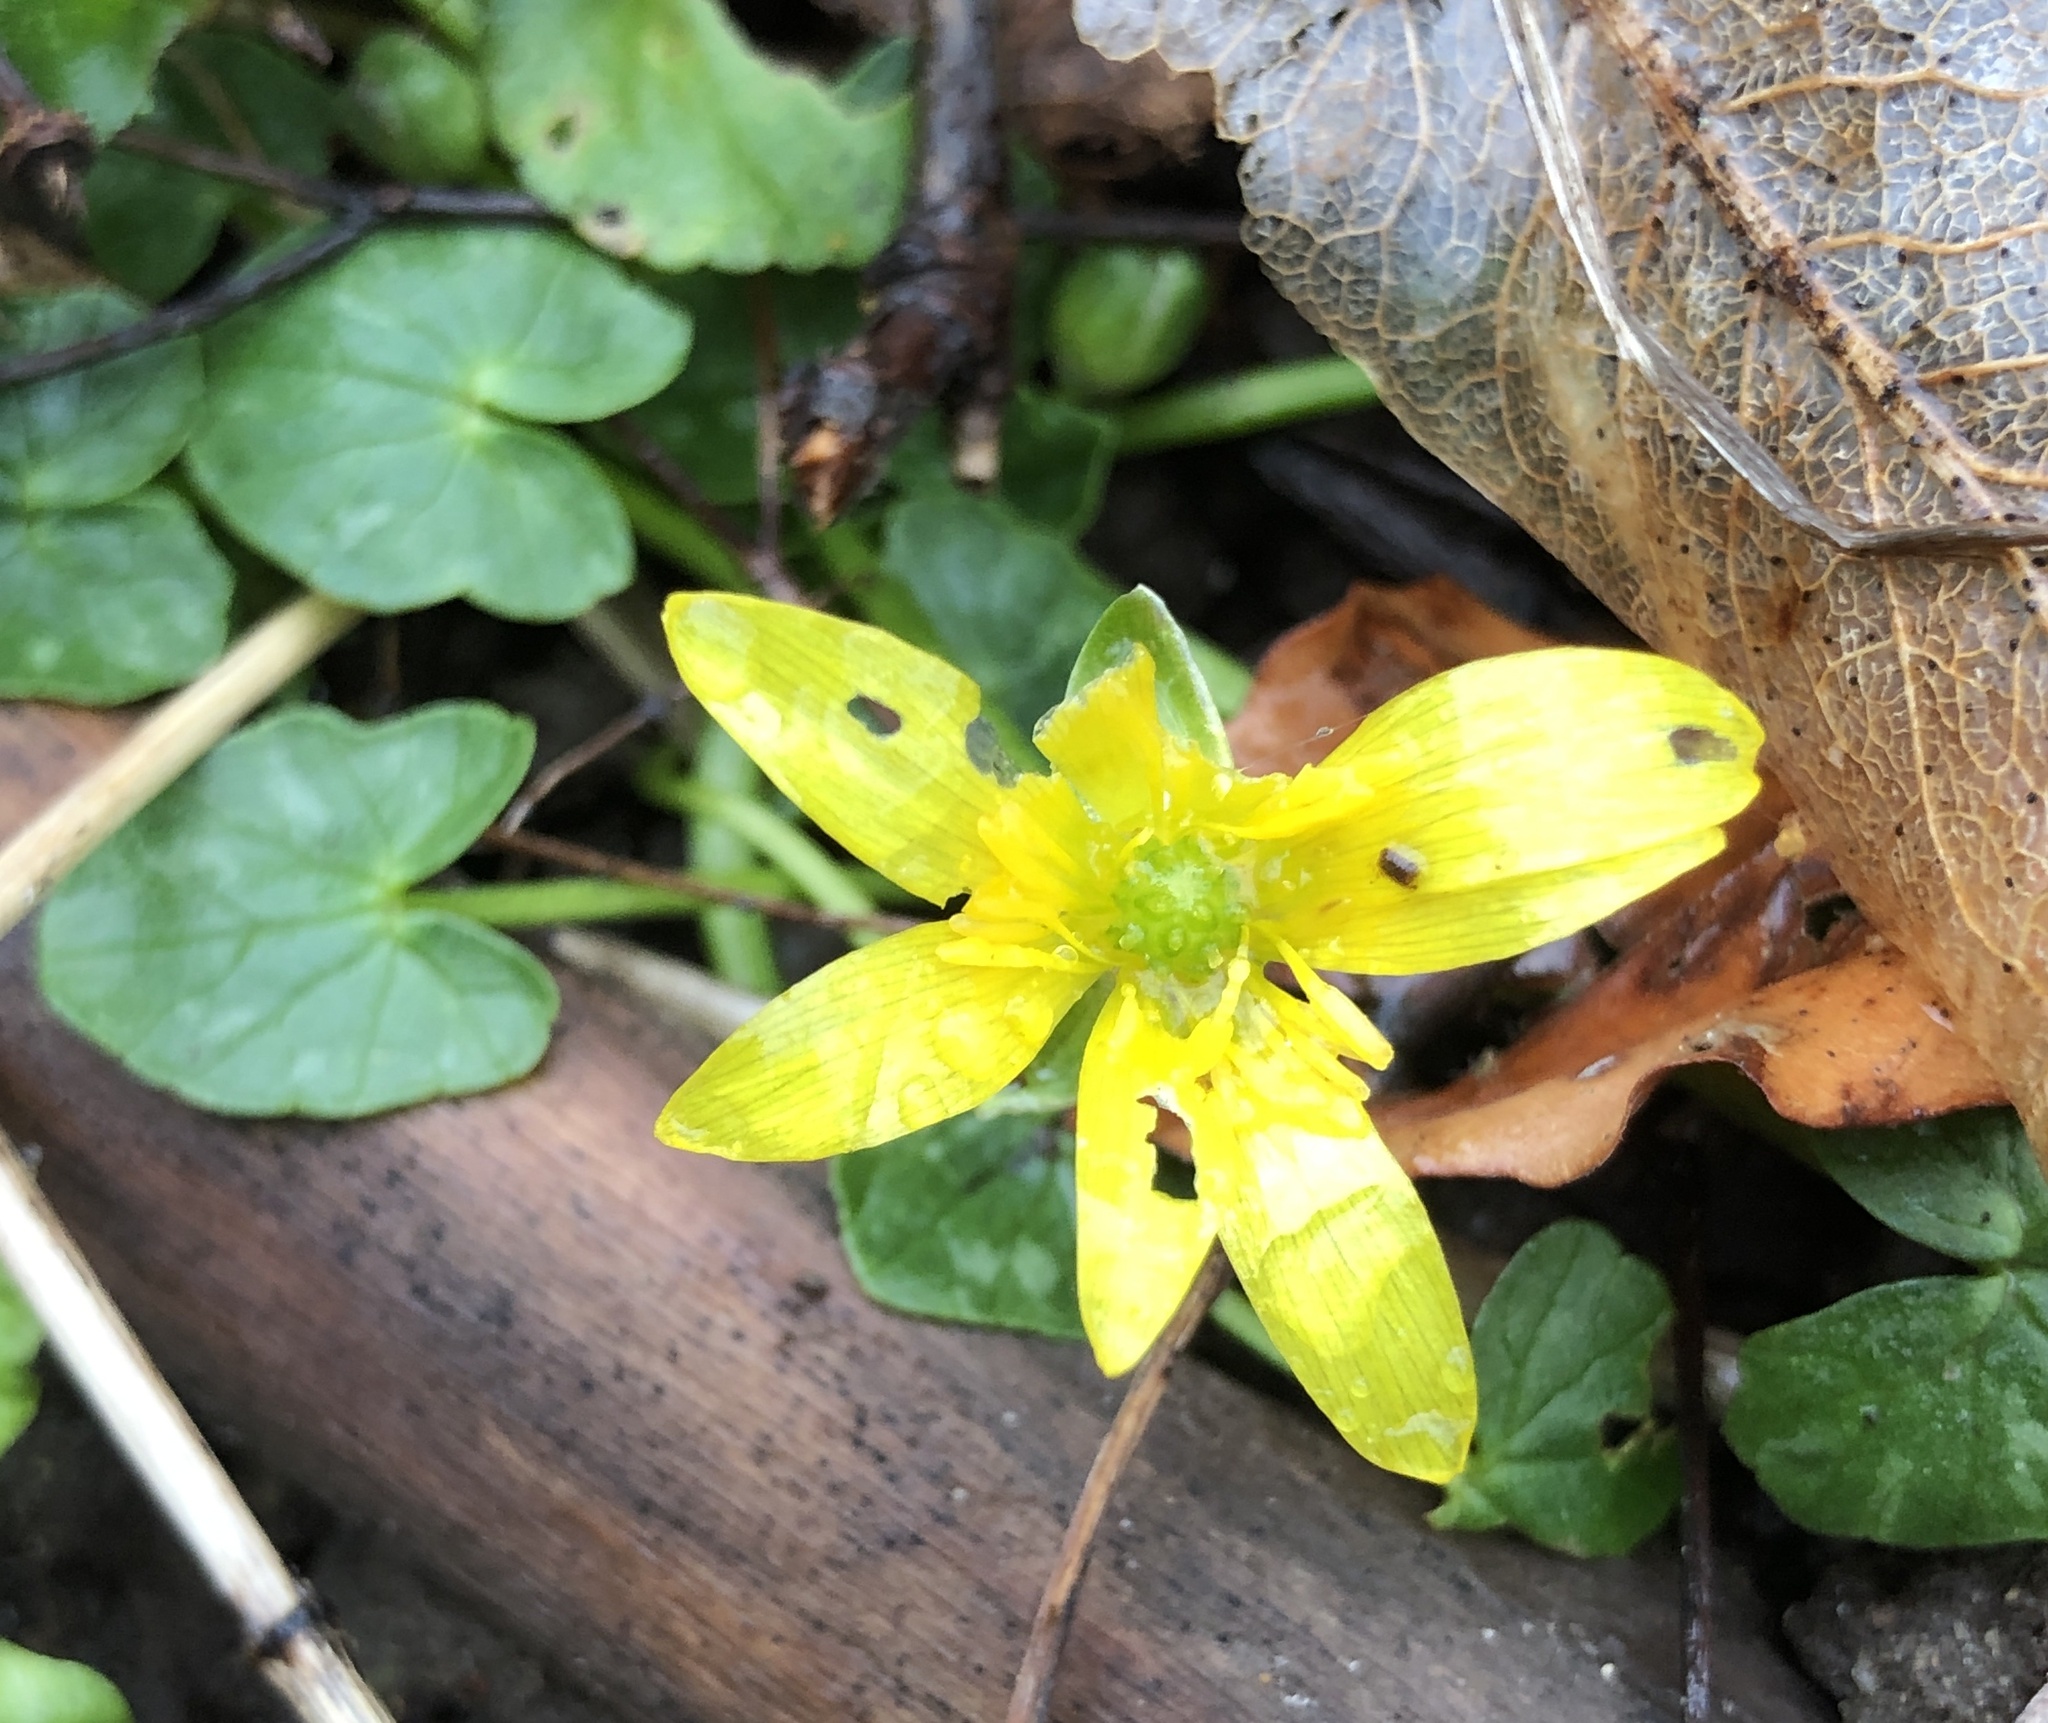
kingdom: Plantae
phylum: Tracheophyta
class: Magnoliopsida
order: Ranunculales
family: Ranunculaceae
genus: Ficaria
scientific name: Ficaria verna
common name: Lesser celandine
